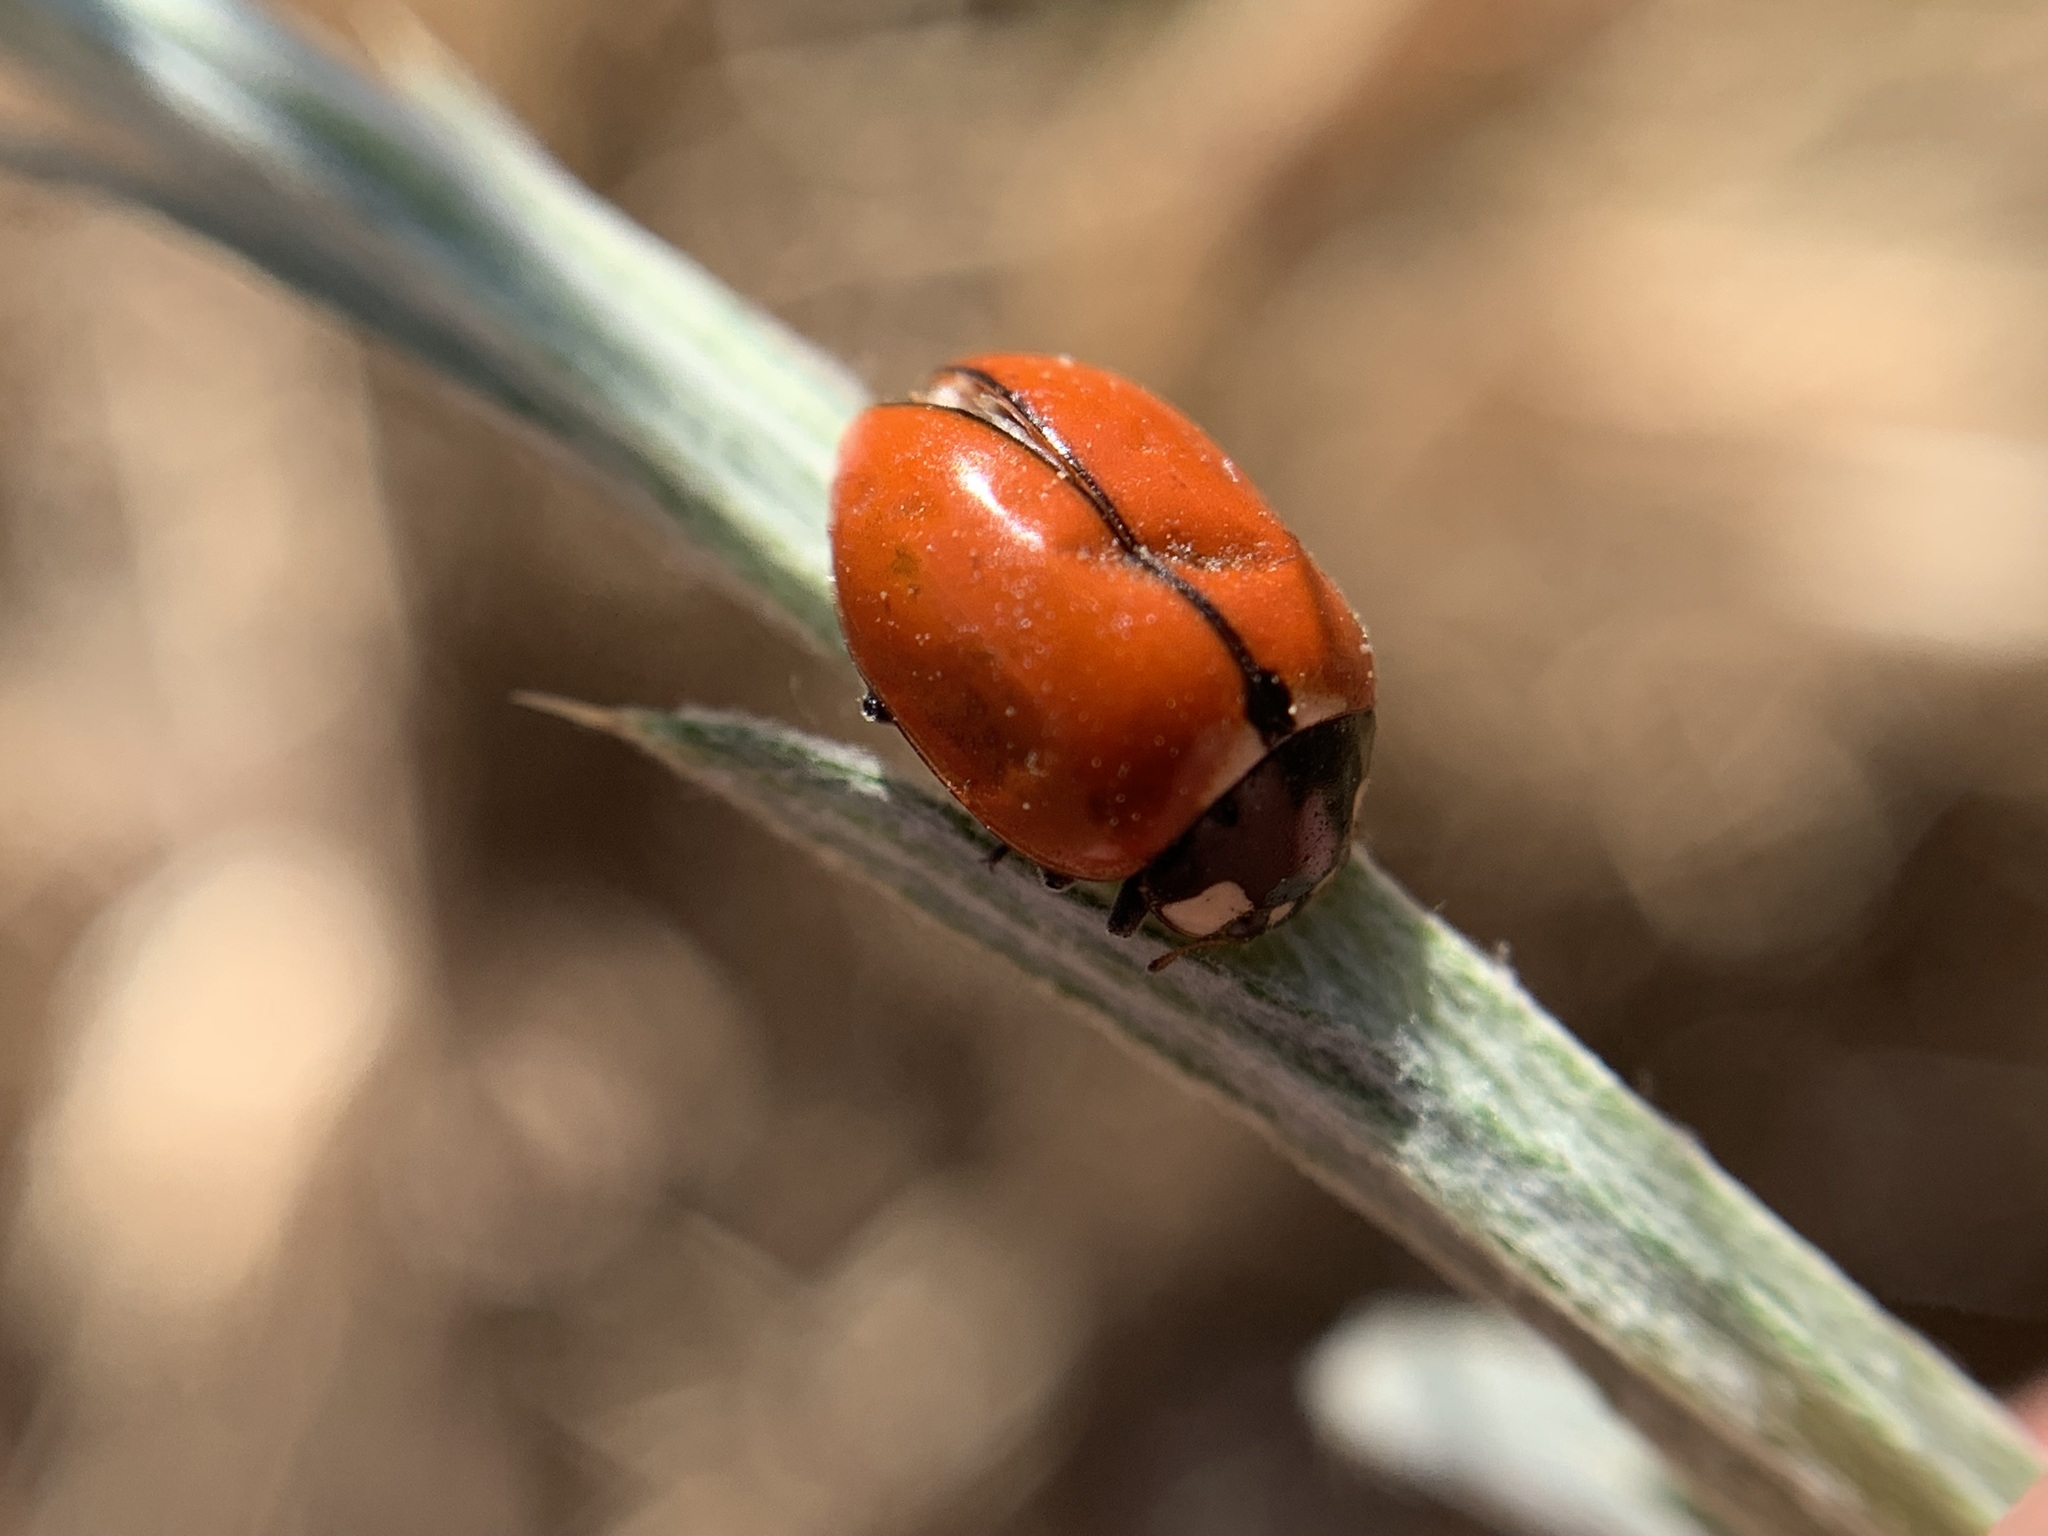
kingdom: Animalia
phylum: Arthropoda
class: Insecta
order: Coleoptera
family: Coccinellidae
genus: Coccinella
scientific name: Coccinella californica
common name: Lady beetle
